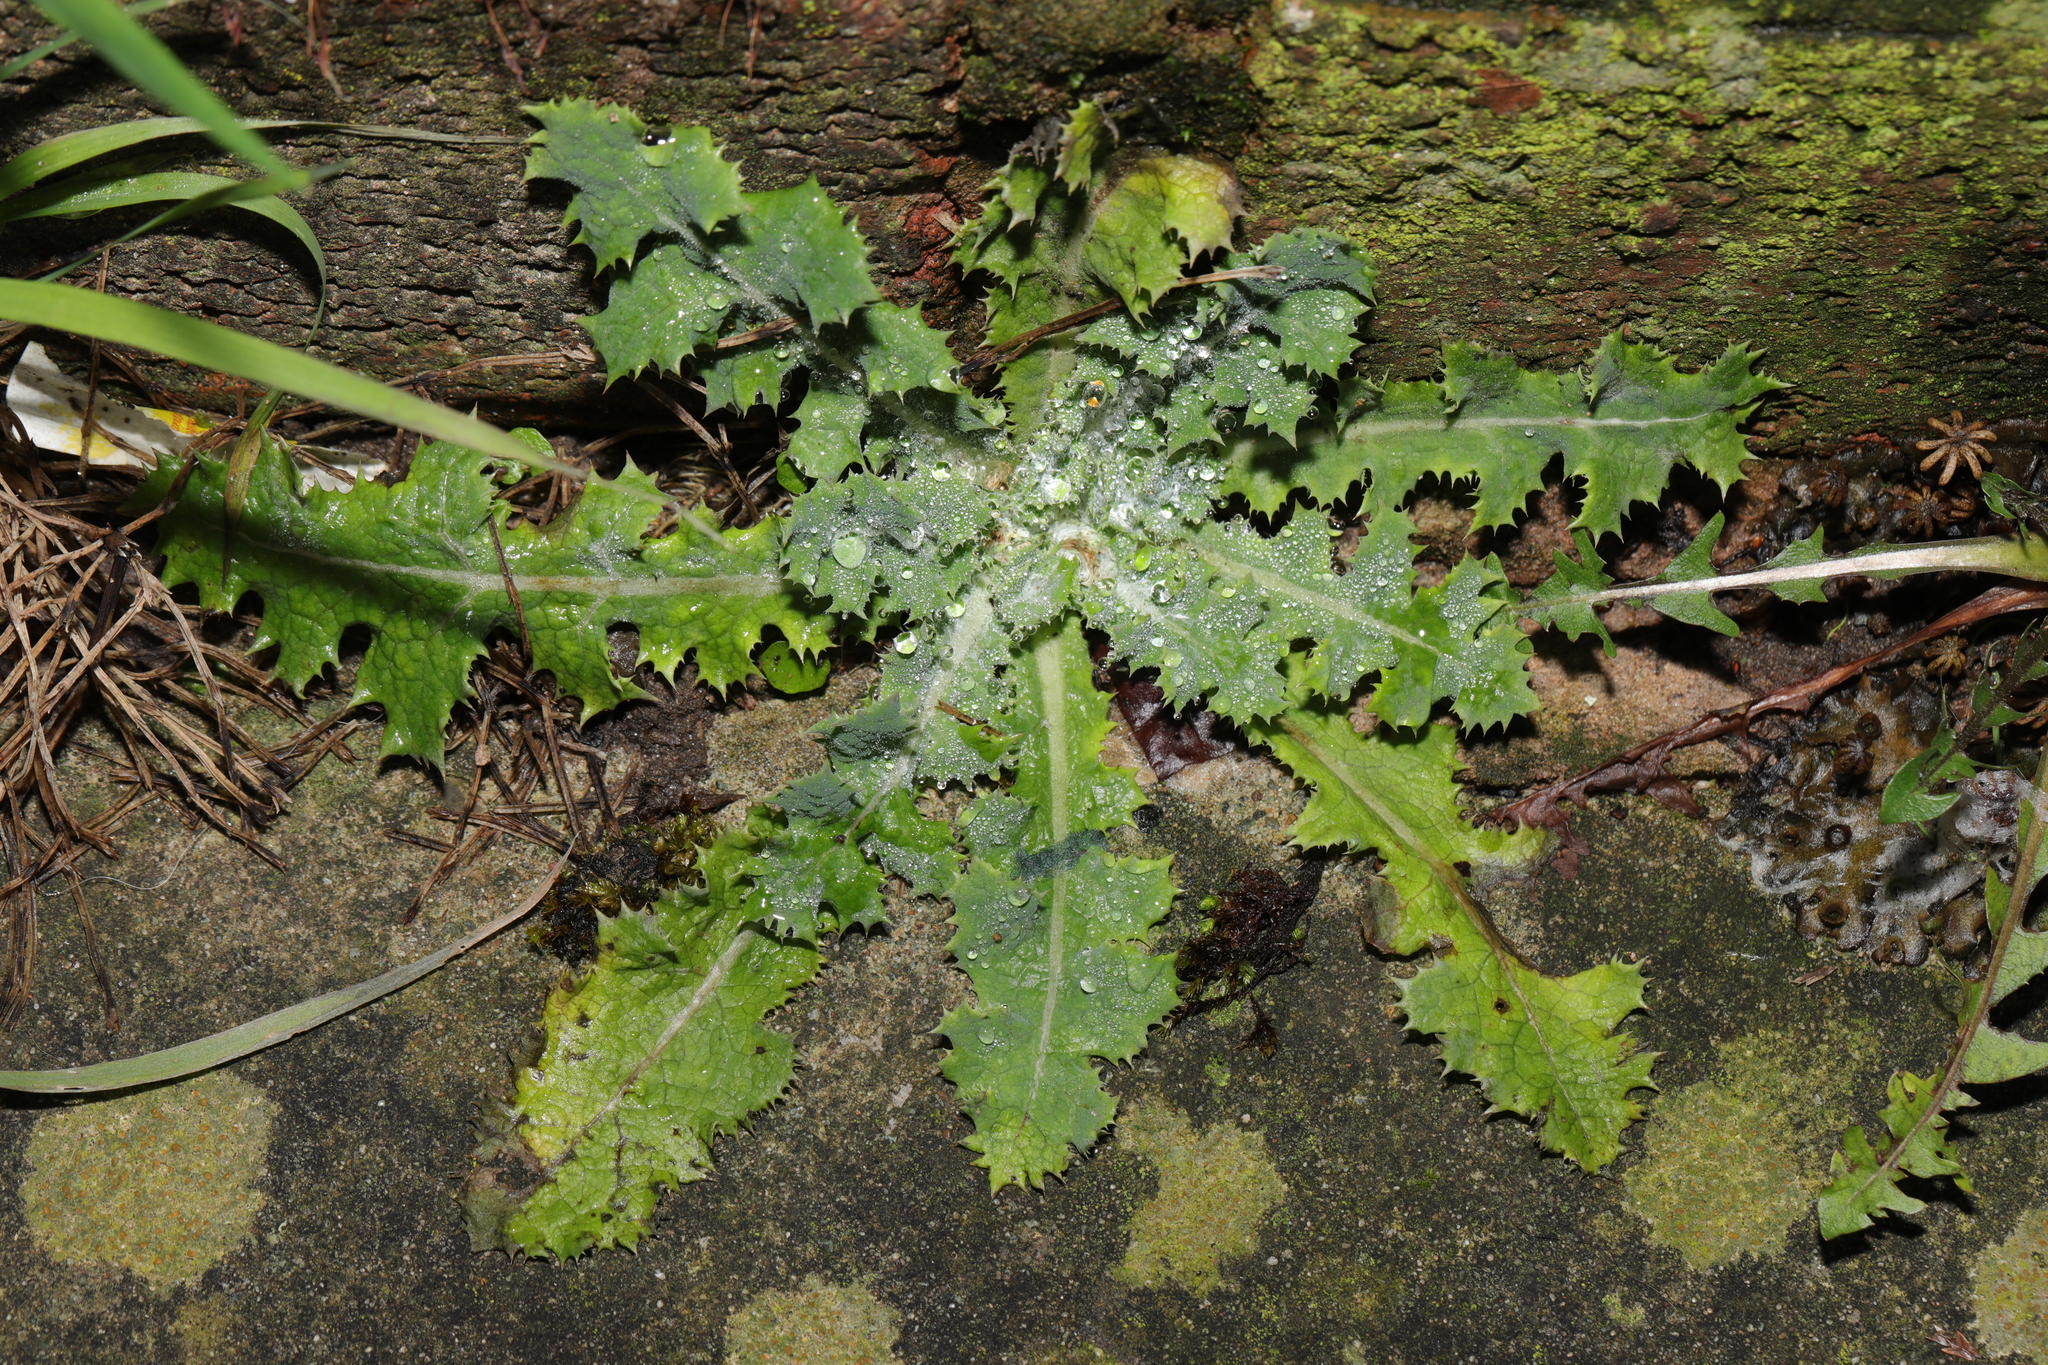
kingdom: Plantae
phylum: Tracheophyta
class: Magnoliopsida
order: Asterales
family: Asteraceae
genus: Sonchus
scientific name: Sonchus asper
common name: Prickly sow-thistle
